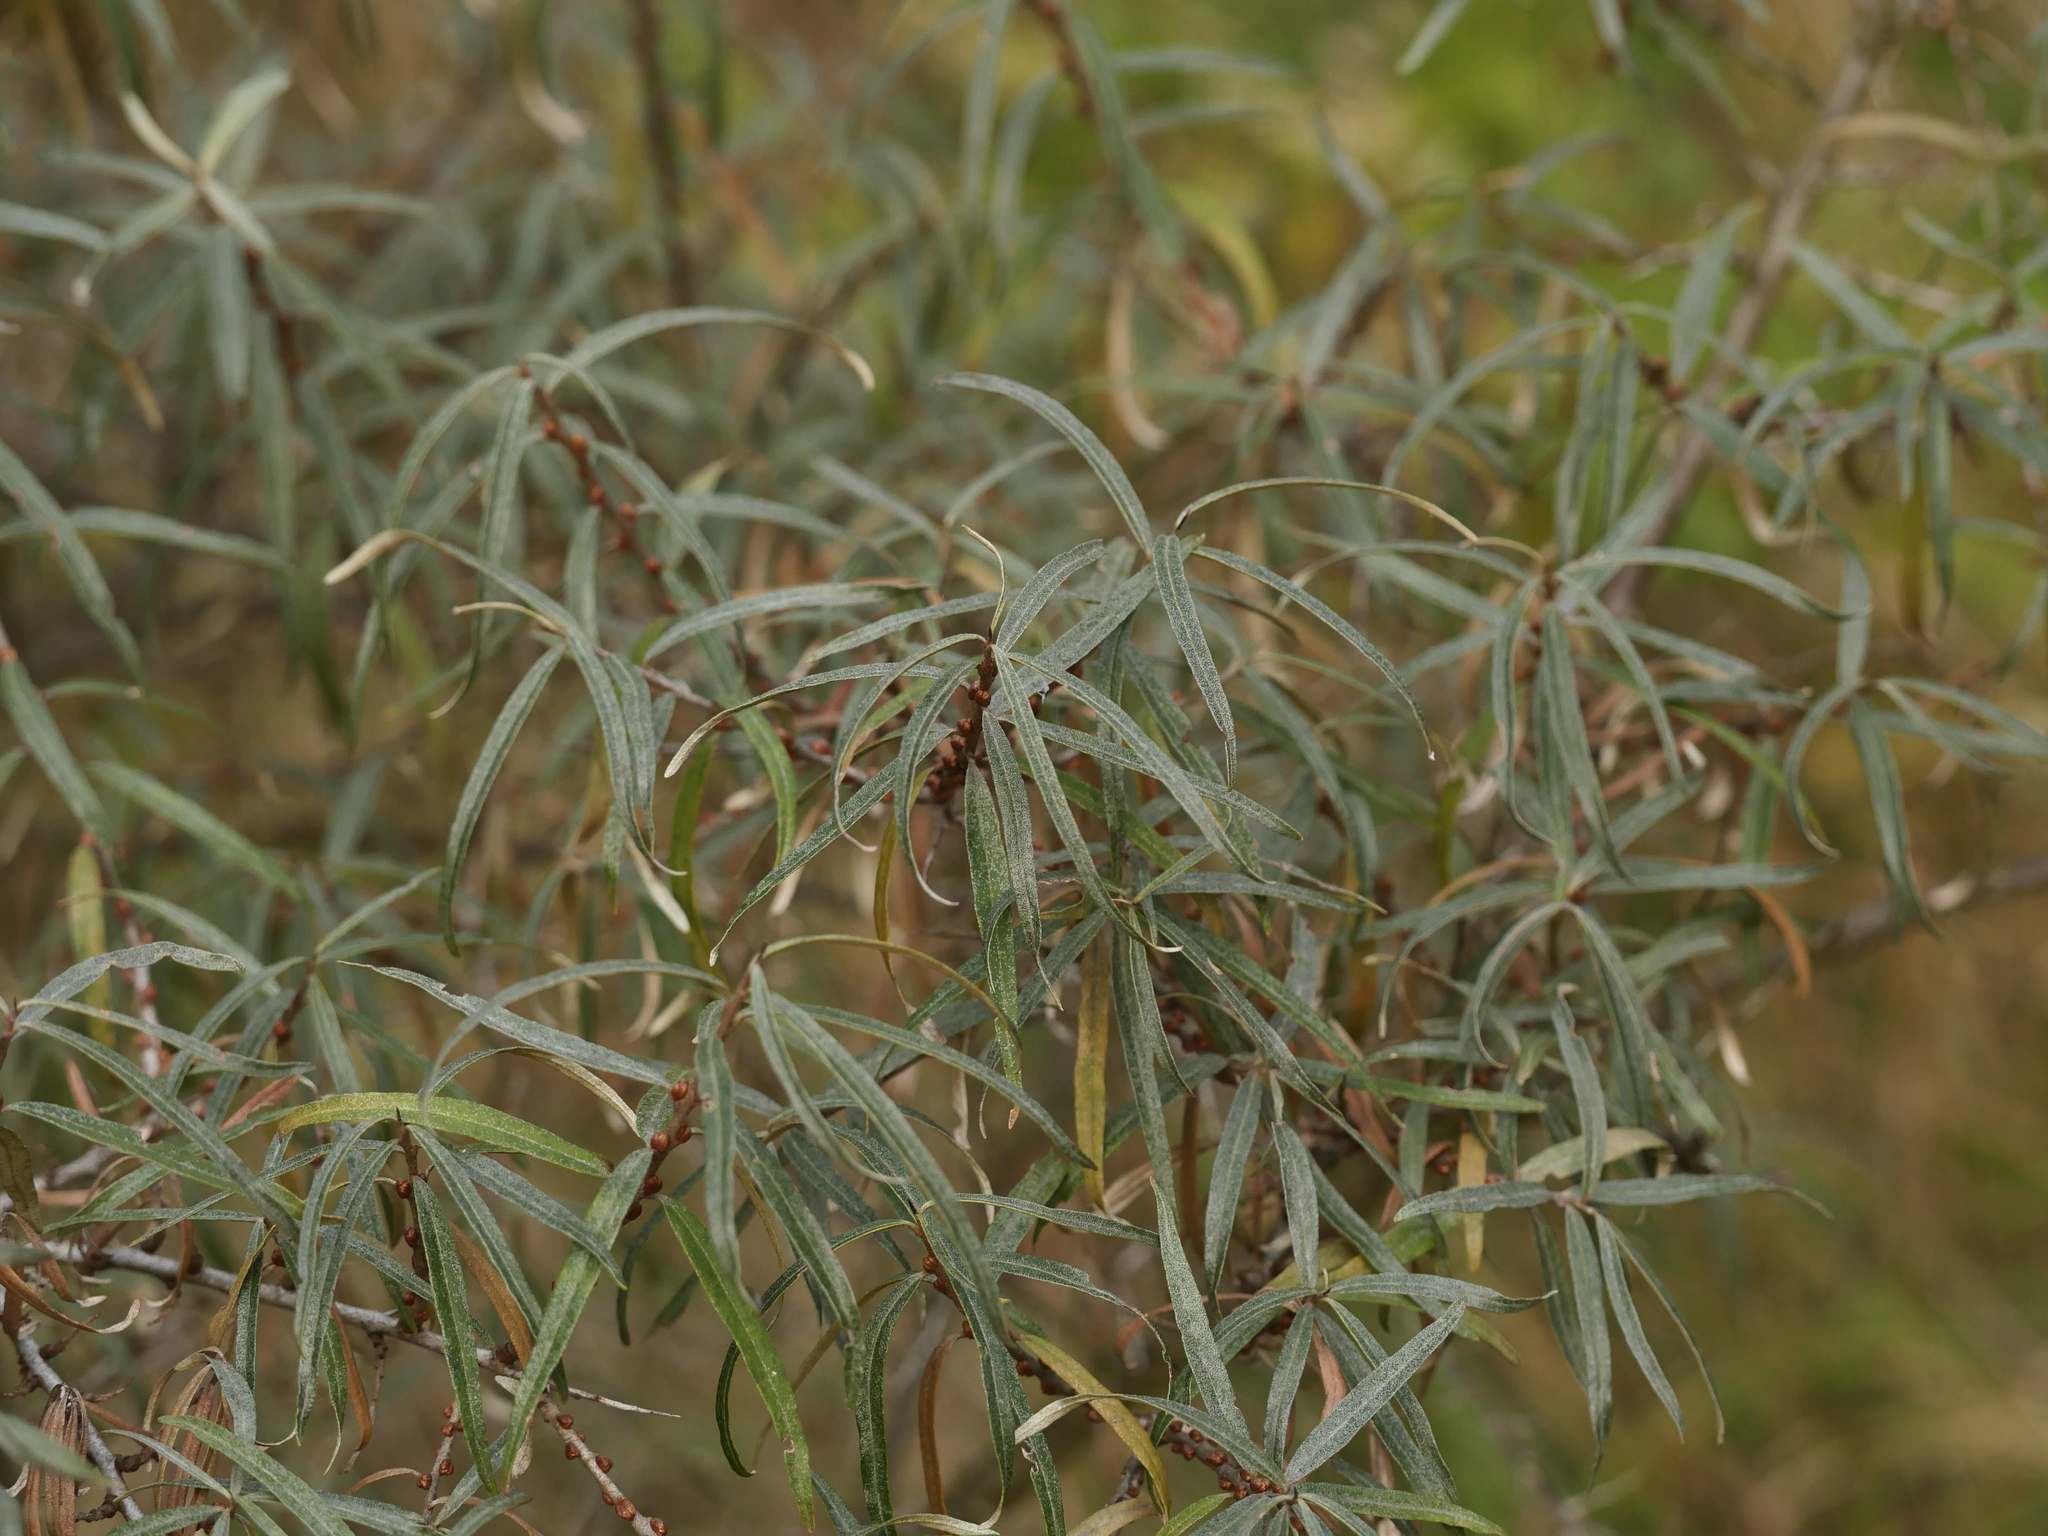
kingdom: Plantae
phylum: Tracheophyta
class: Magnoliopsida
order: Rosales
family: Elaeagnaceae
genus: Hippophae
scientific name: Hippophae rhamnoides
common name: Sea-buckthorn
